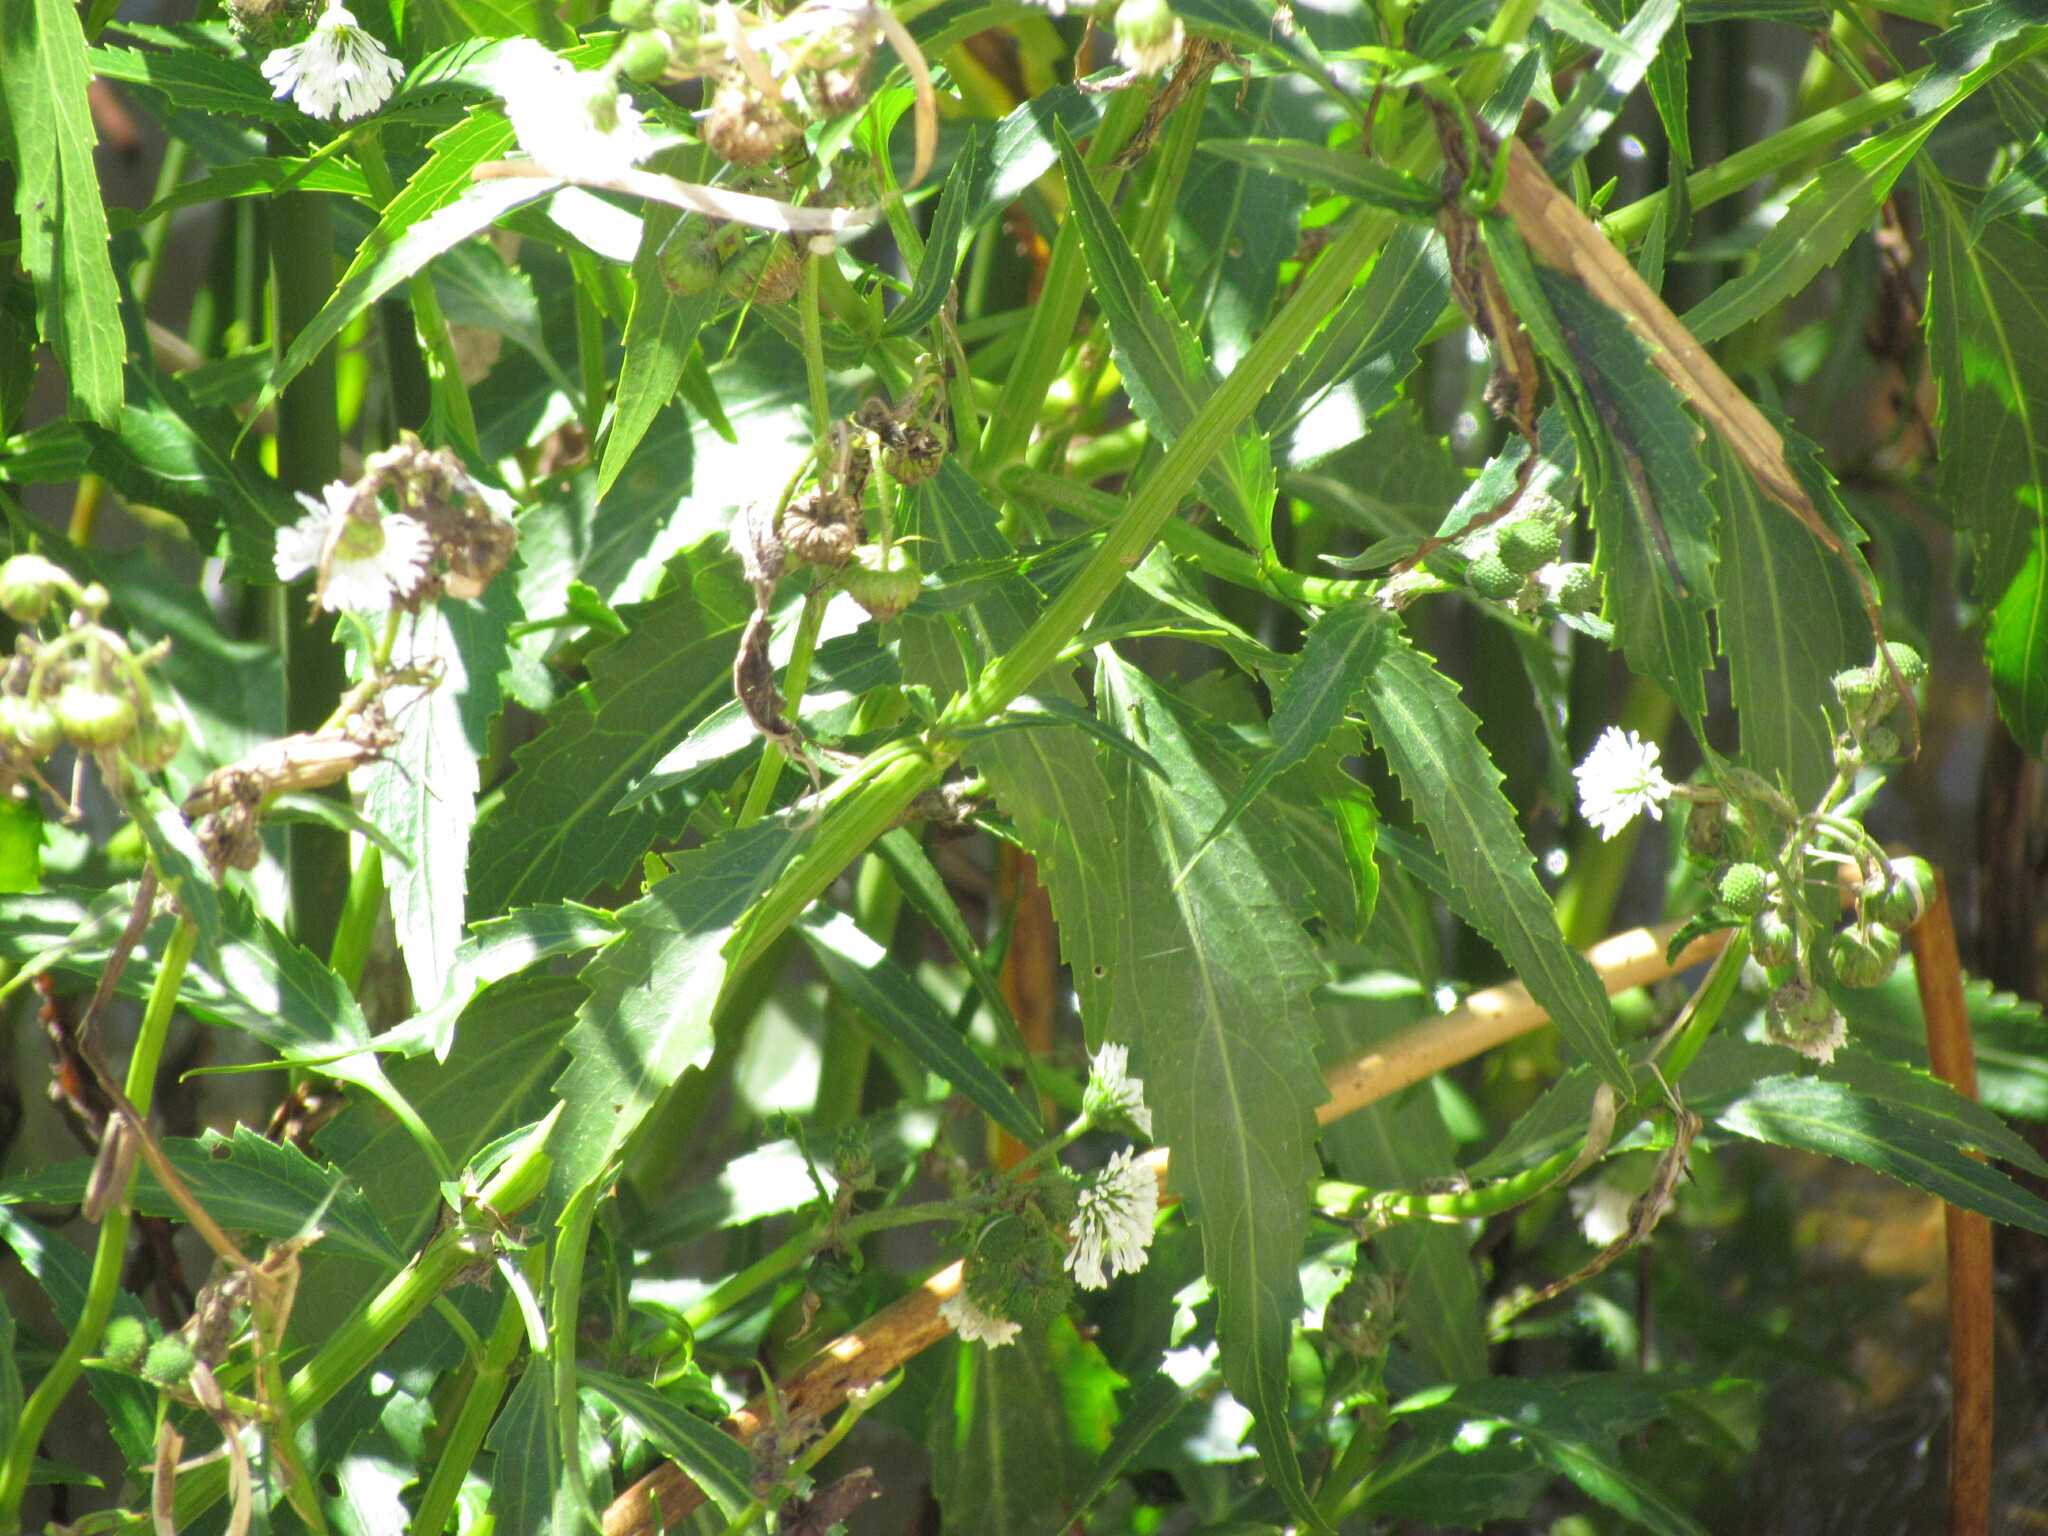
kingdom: Plantae
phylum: Tracheophyta
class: Magnoliopsida
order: Asterales
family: Asteraceae
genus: Gymnocoronis
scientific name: Gymnocoronis spilanthoides
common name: Senegal teaplant
